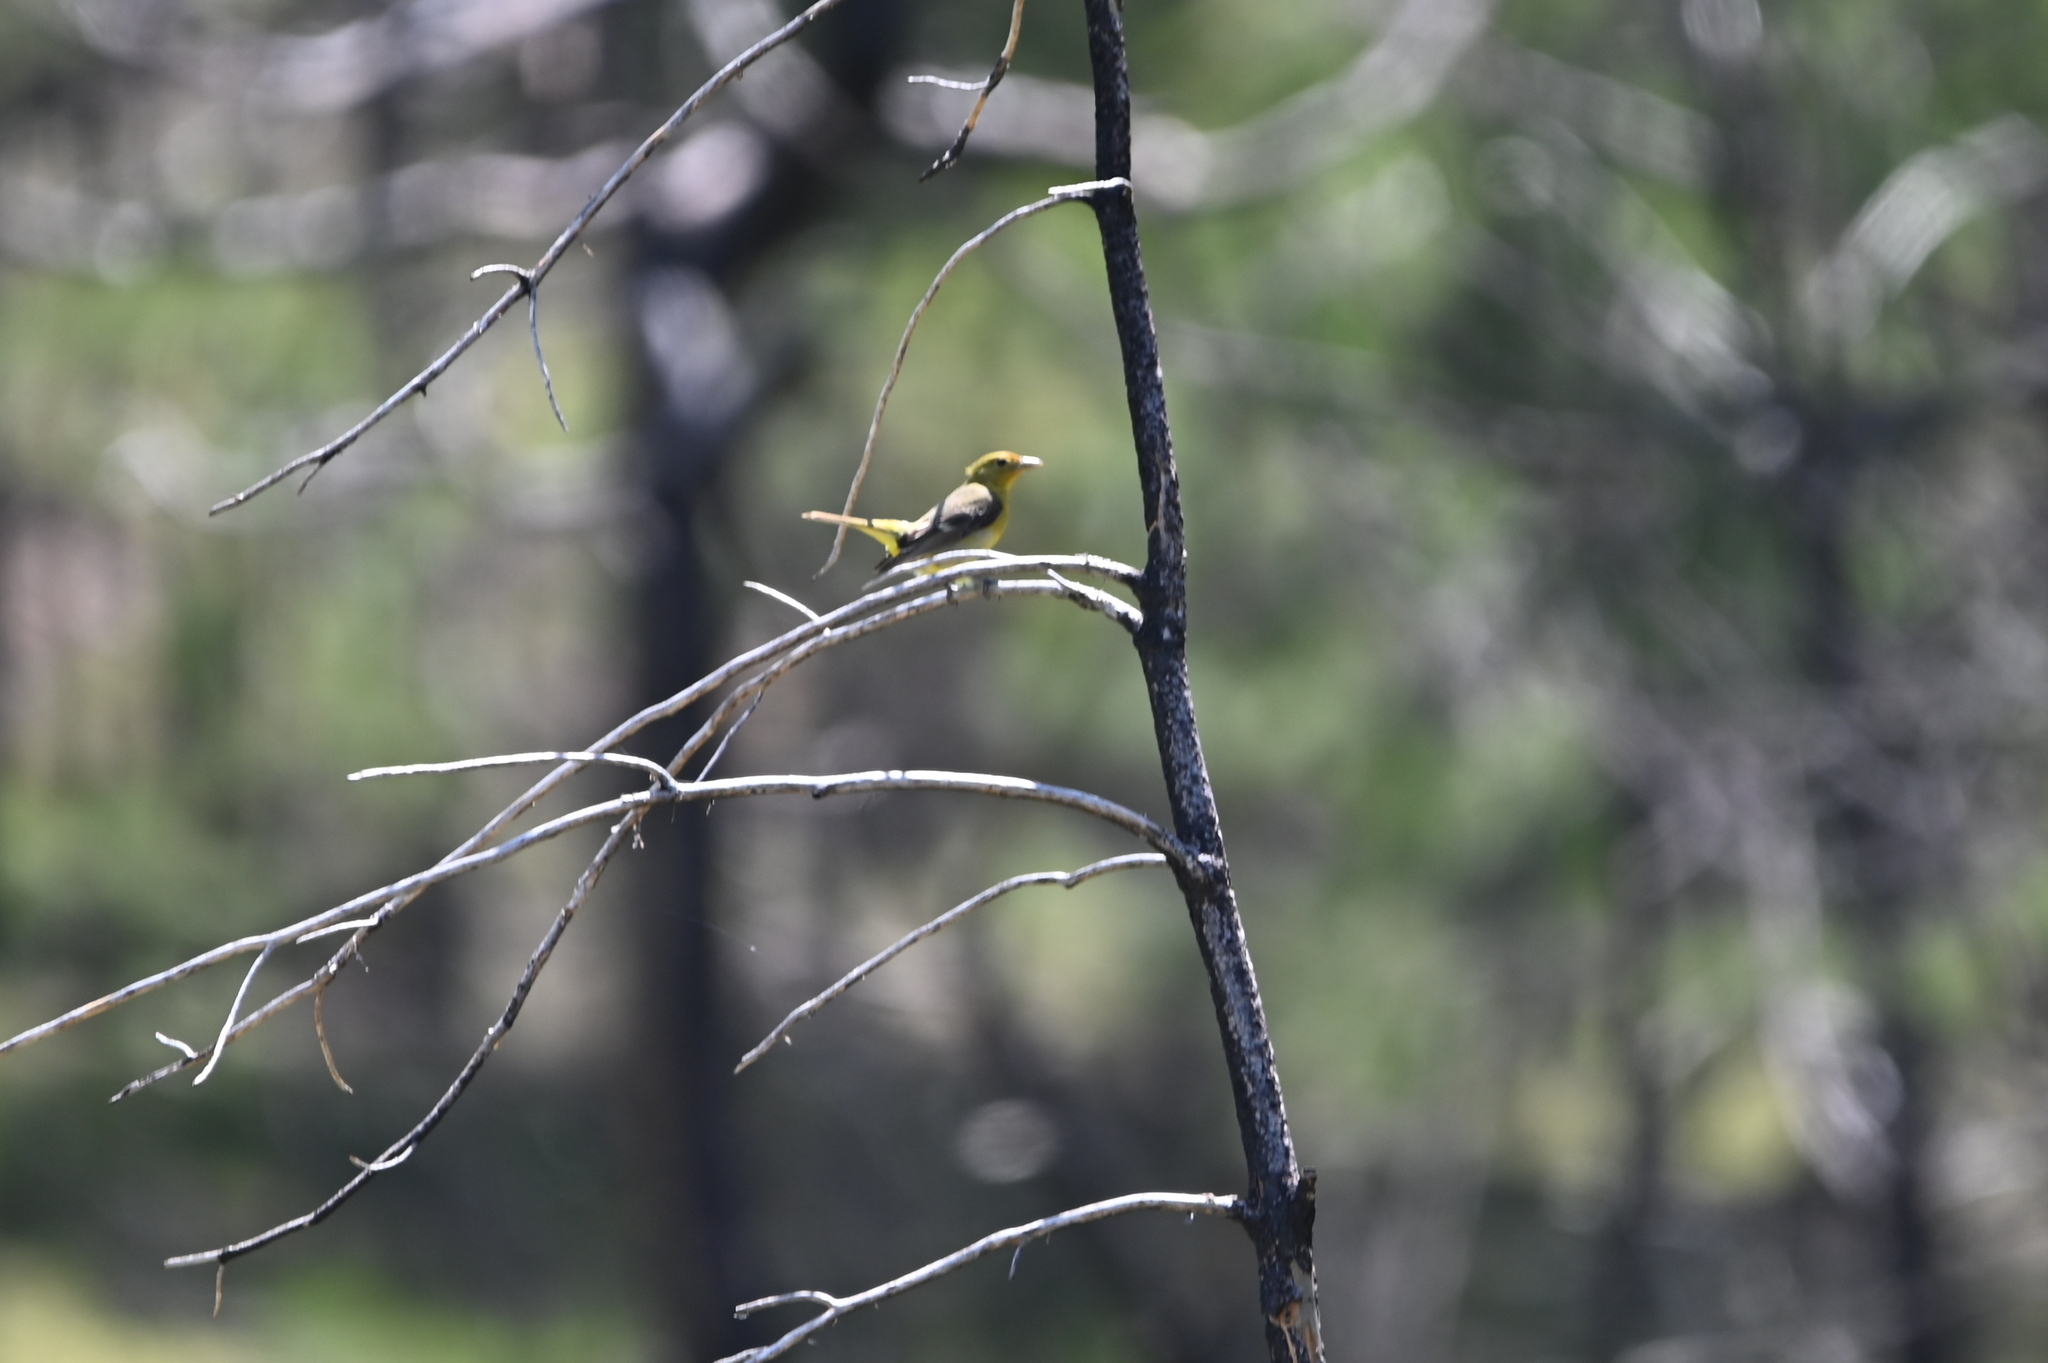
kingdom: Animalia
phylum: Chordata
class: Aves
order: Passeriformes
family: Cardinalidae
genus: Piranga
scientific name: Piranga ludoviciana
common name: Western tanager
